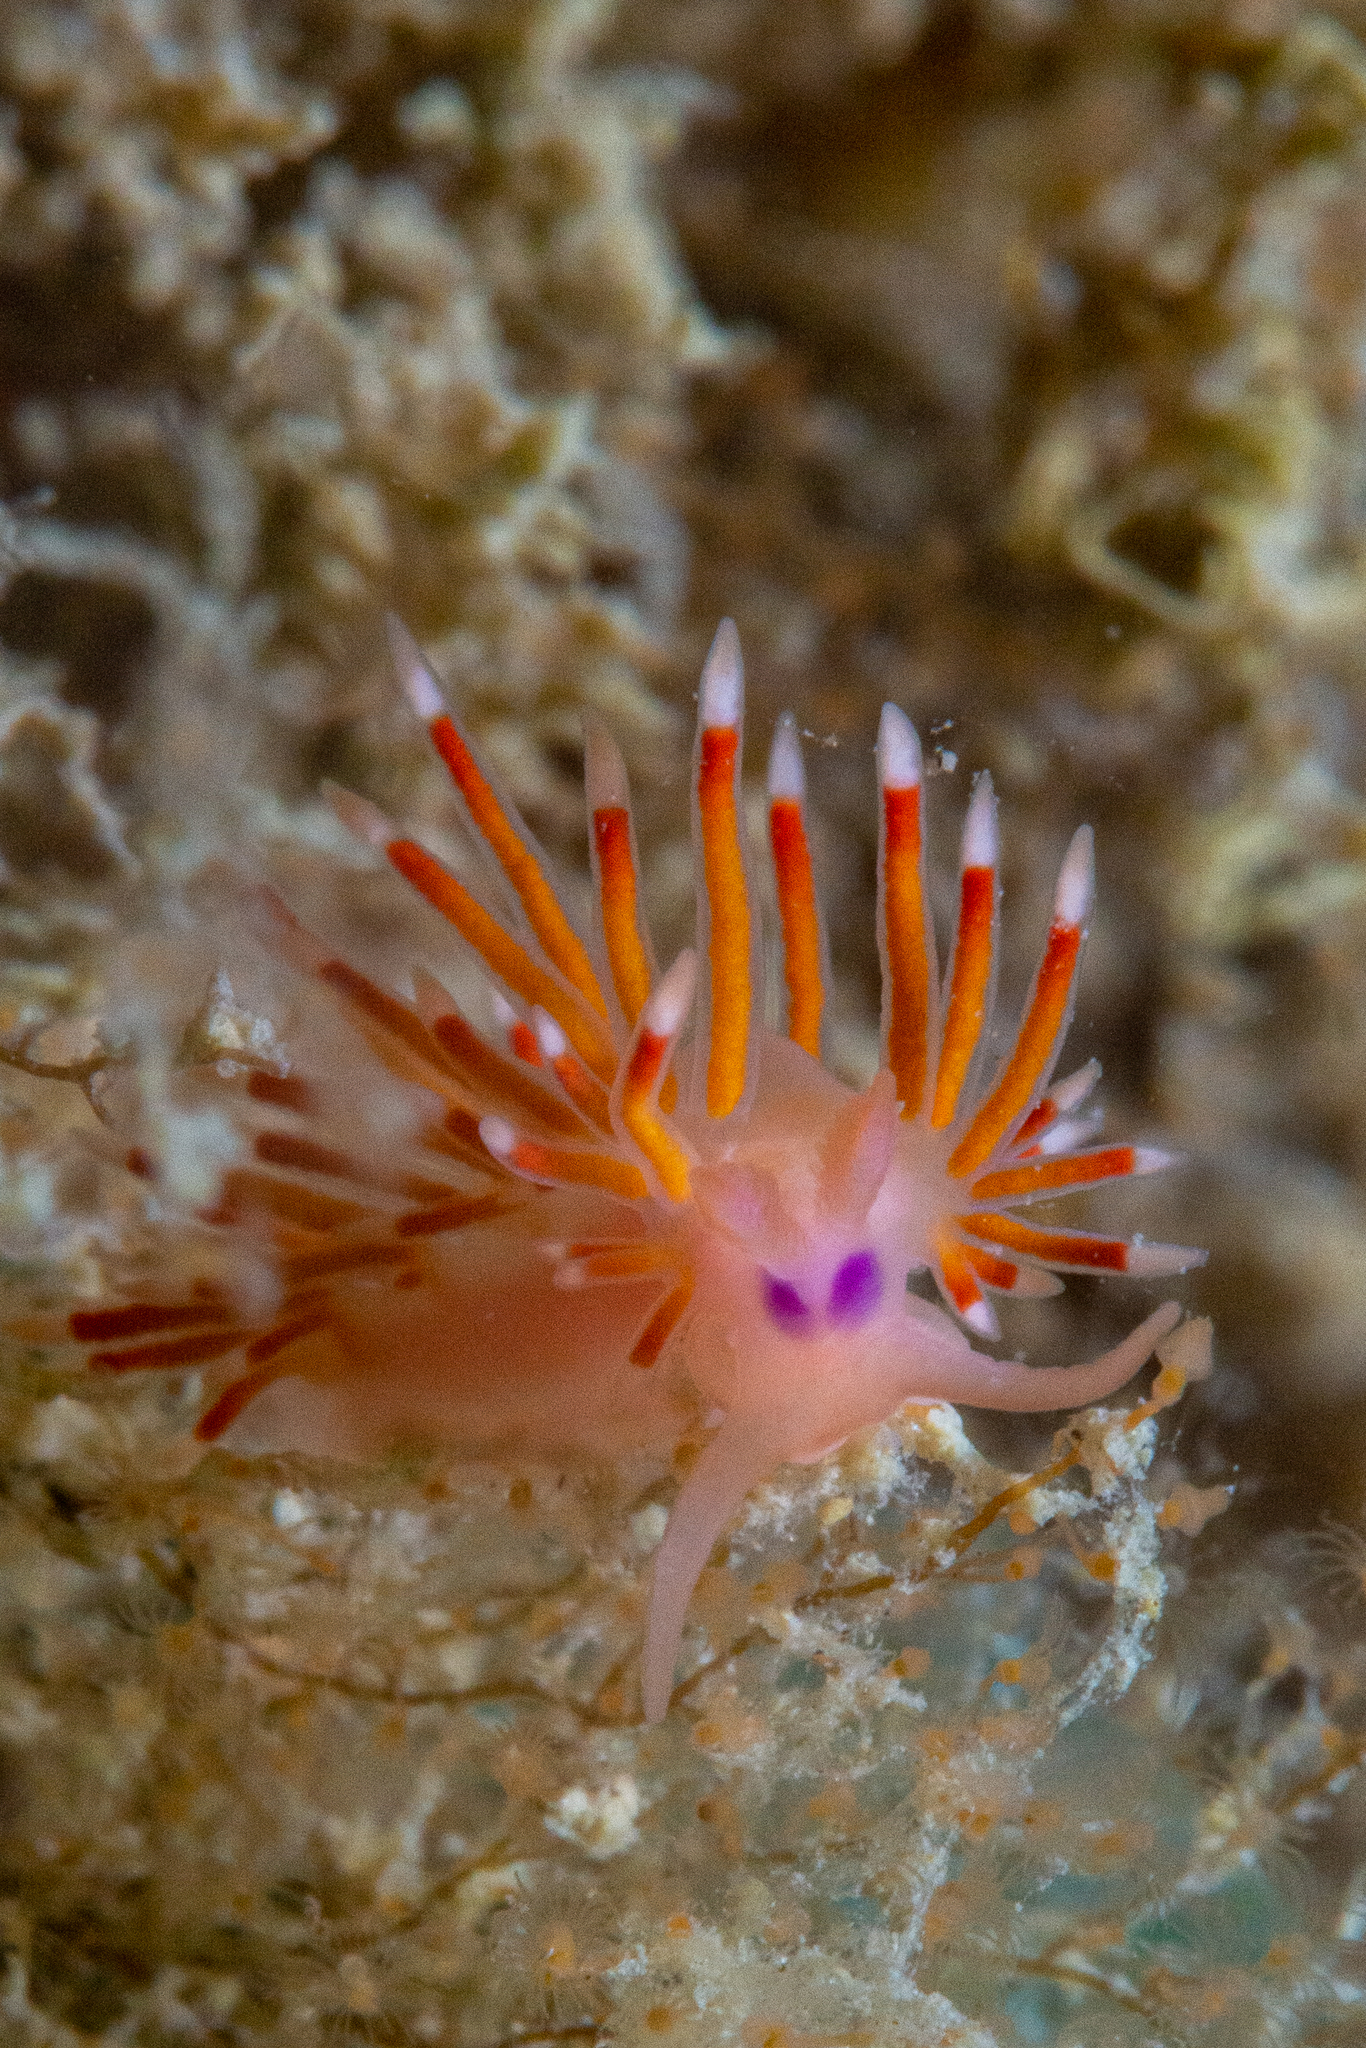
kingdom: Animalia
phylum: Mollusca
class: Gastropoda
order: Nudibranchia
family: Flabellinidae
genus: Coryphellina
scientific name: Coryphellina poenicia
